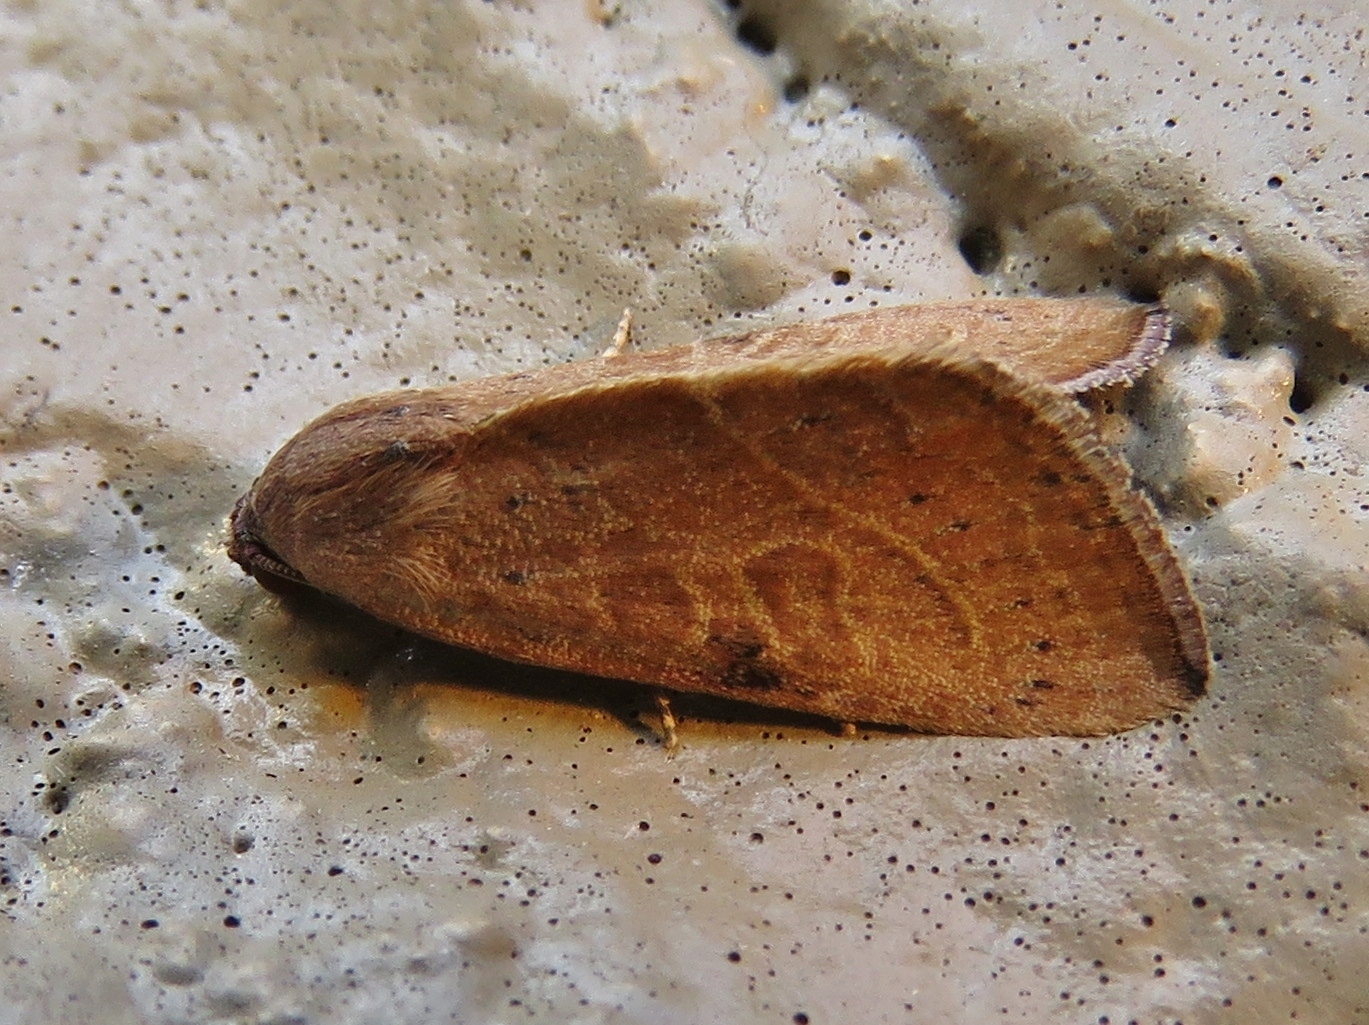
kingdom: Animalia
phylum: Arthropoda
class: Insecta
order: Lepidoptera
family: Noctuidae
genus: Galgula
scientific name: Galgula partita
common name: Wedgeling
